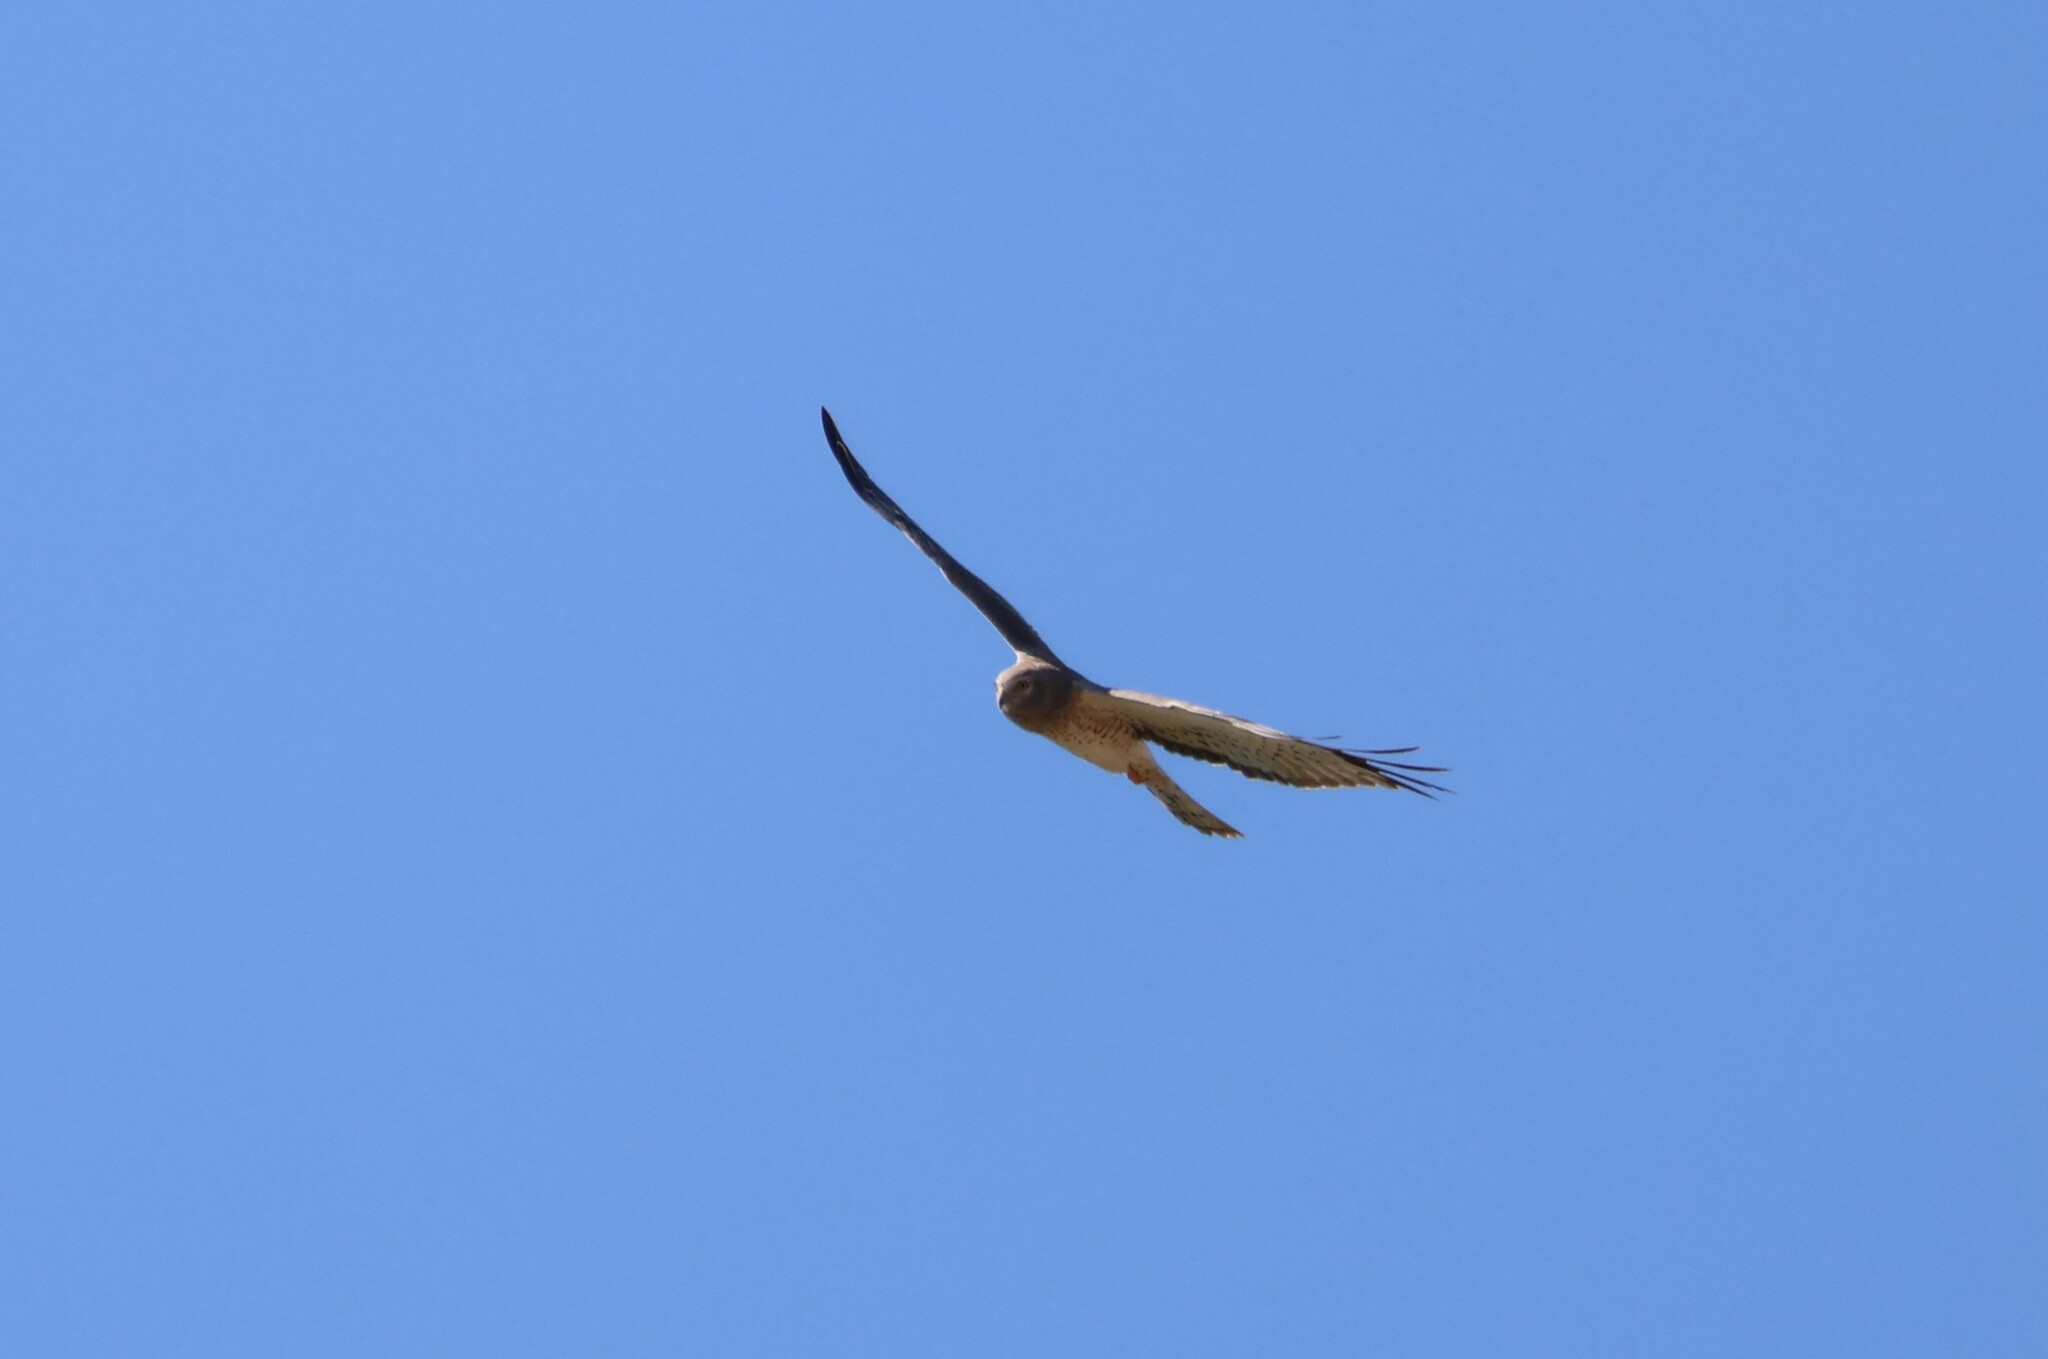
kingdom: Animalia
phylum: Chordata
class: Aves
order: Accipitriformes
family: Accipitridae
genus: Circus
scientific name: Circus cyaneus
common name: Hen harrier
